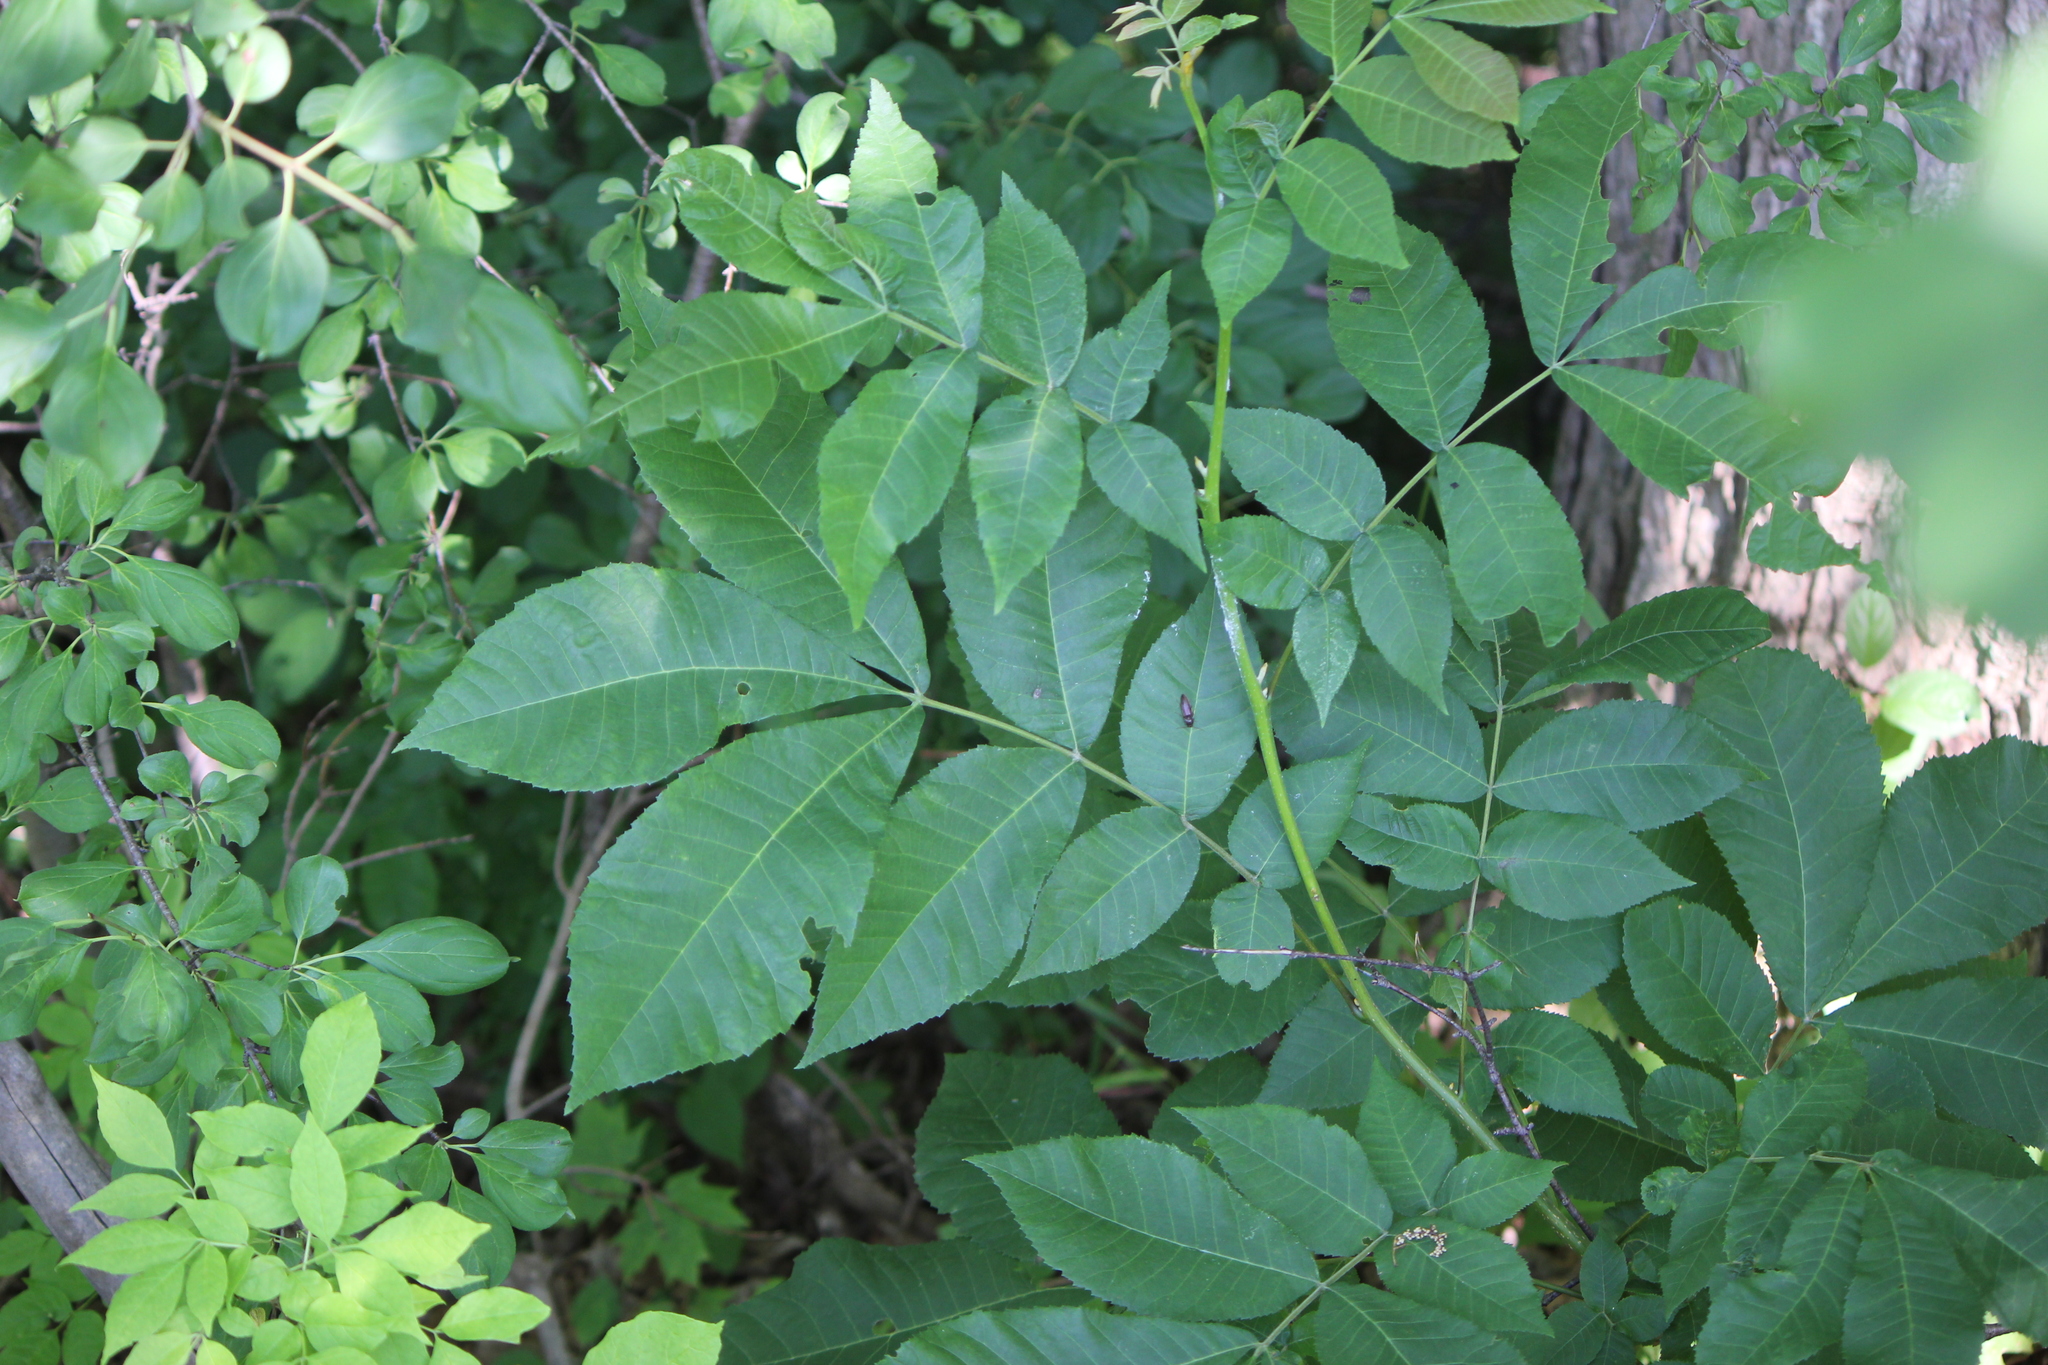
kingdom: Plantae
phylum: Tracheophyta
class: Magnoliopsida
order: Fagales
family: Juglandaceae
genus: Carya
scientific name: Carya cordiformis
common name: Bitternut hickory
